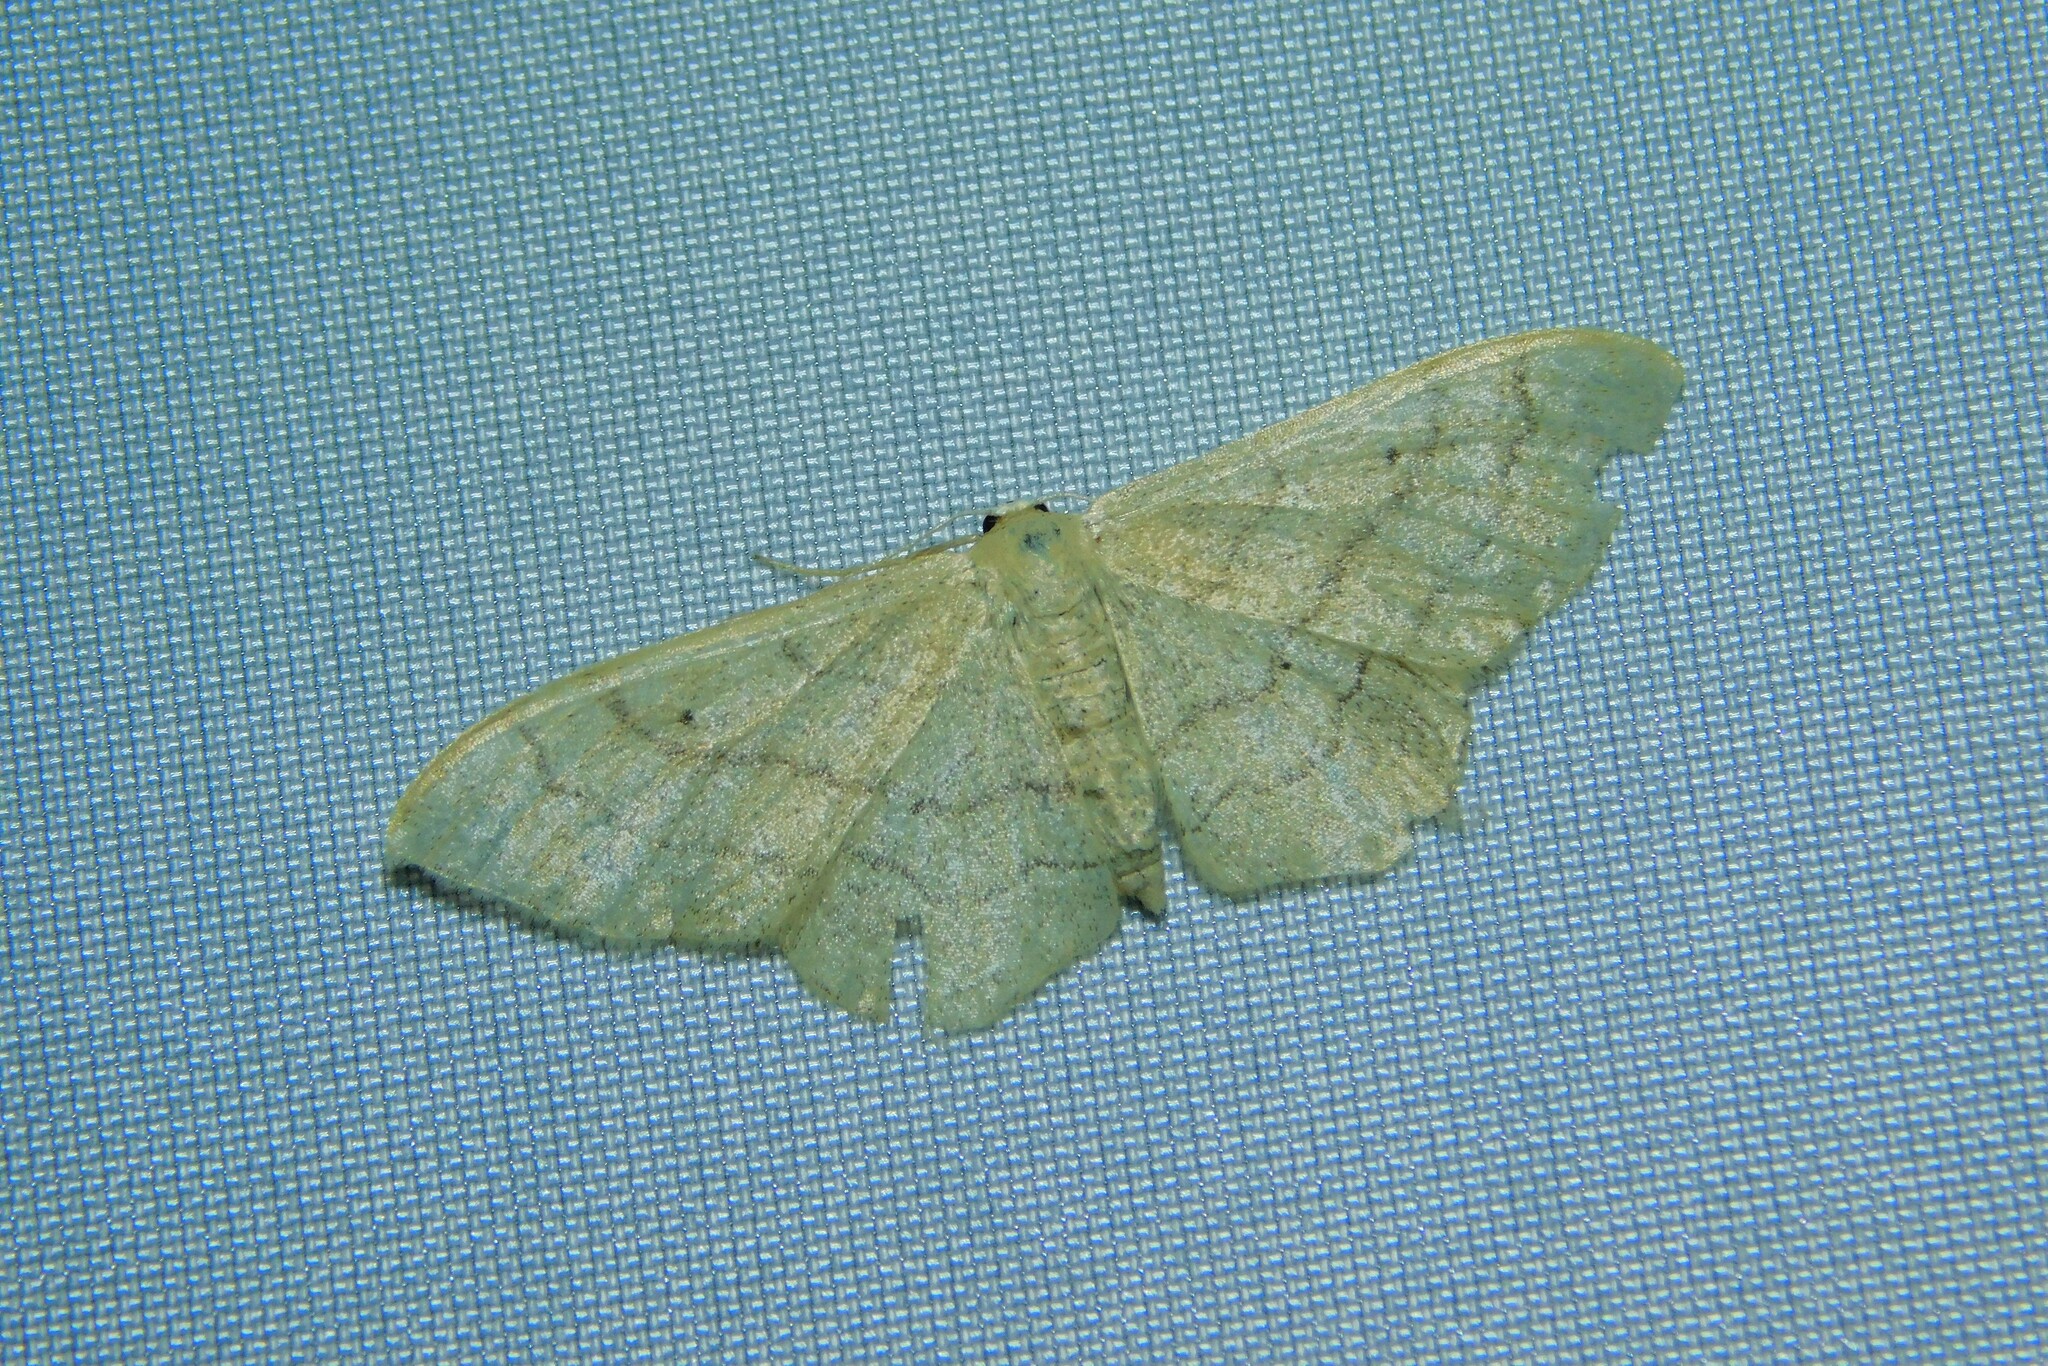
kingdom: Animalia
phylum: Arthropoda
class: Insecta
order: Lepidoptera
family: Geometridae
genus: Idaea
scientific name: Idaea aversata
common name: Riband wave
